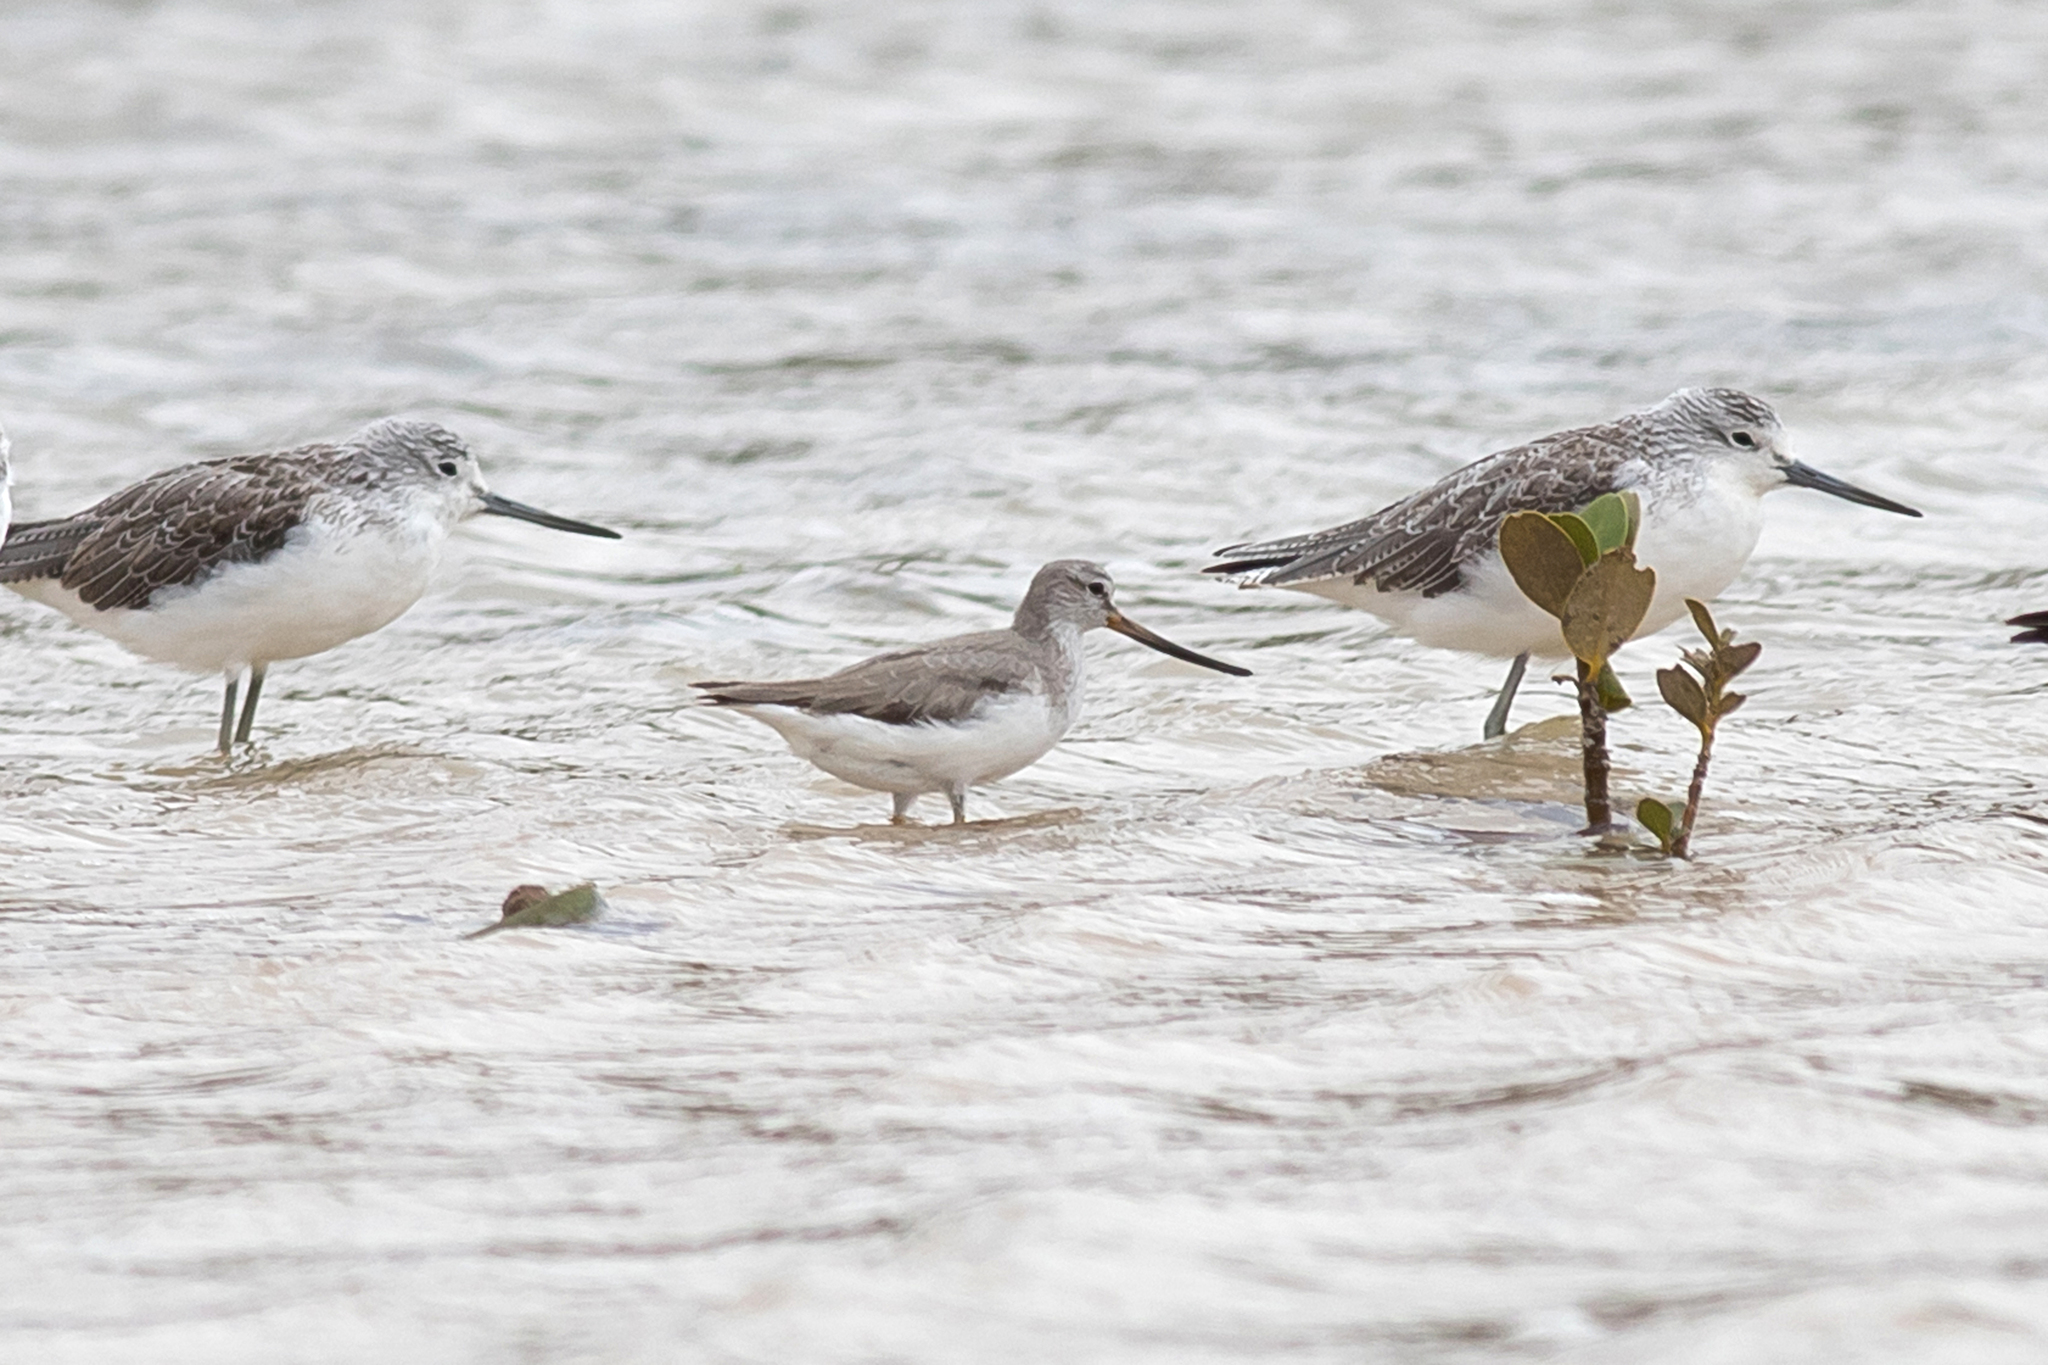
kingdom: Animalia
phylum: Chordata
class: Aves
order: Charadriiformes
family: Scolopacidae
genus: Xenus
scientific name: Xenus cinereus
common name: Terek sandpiper
